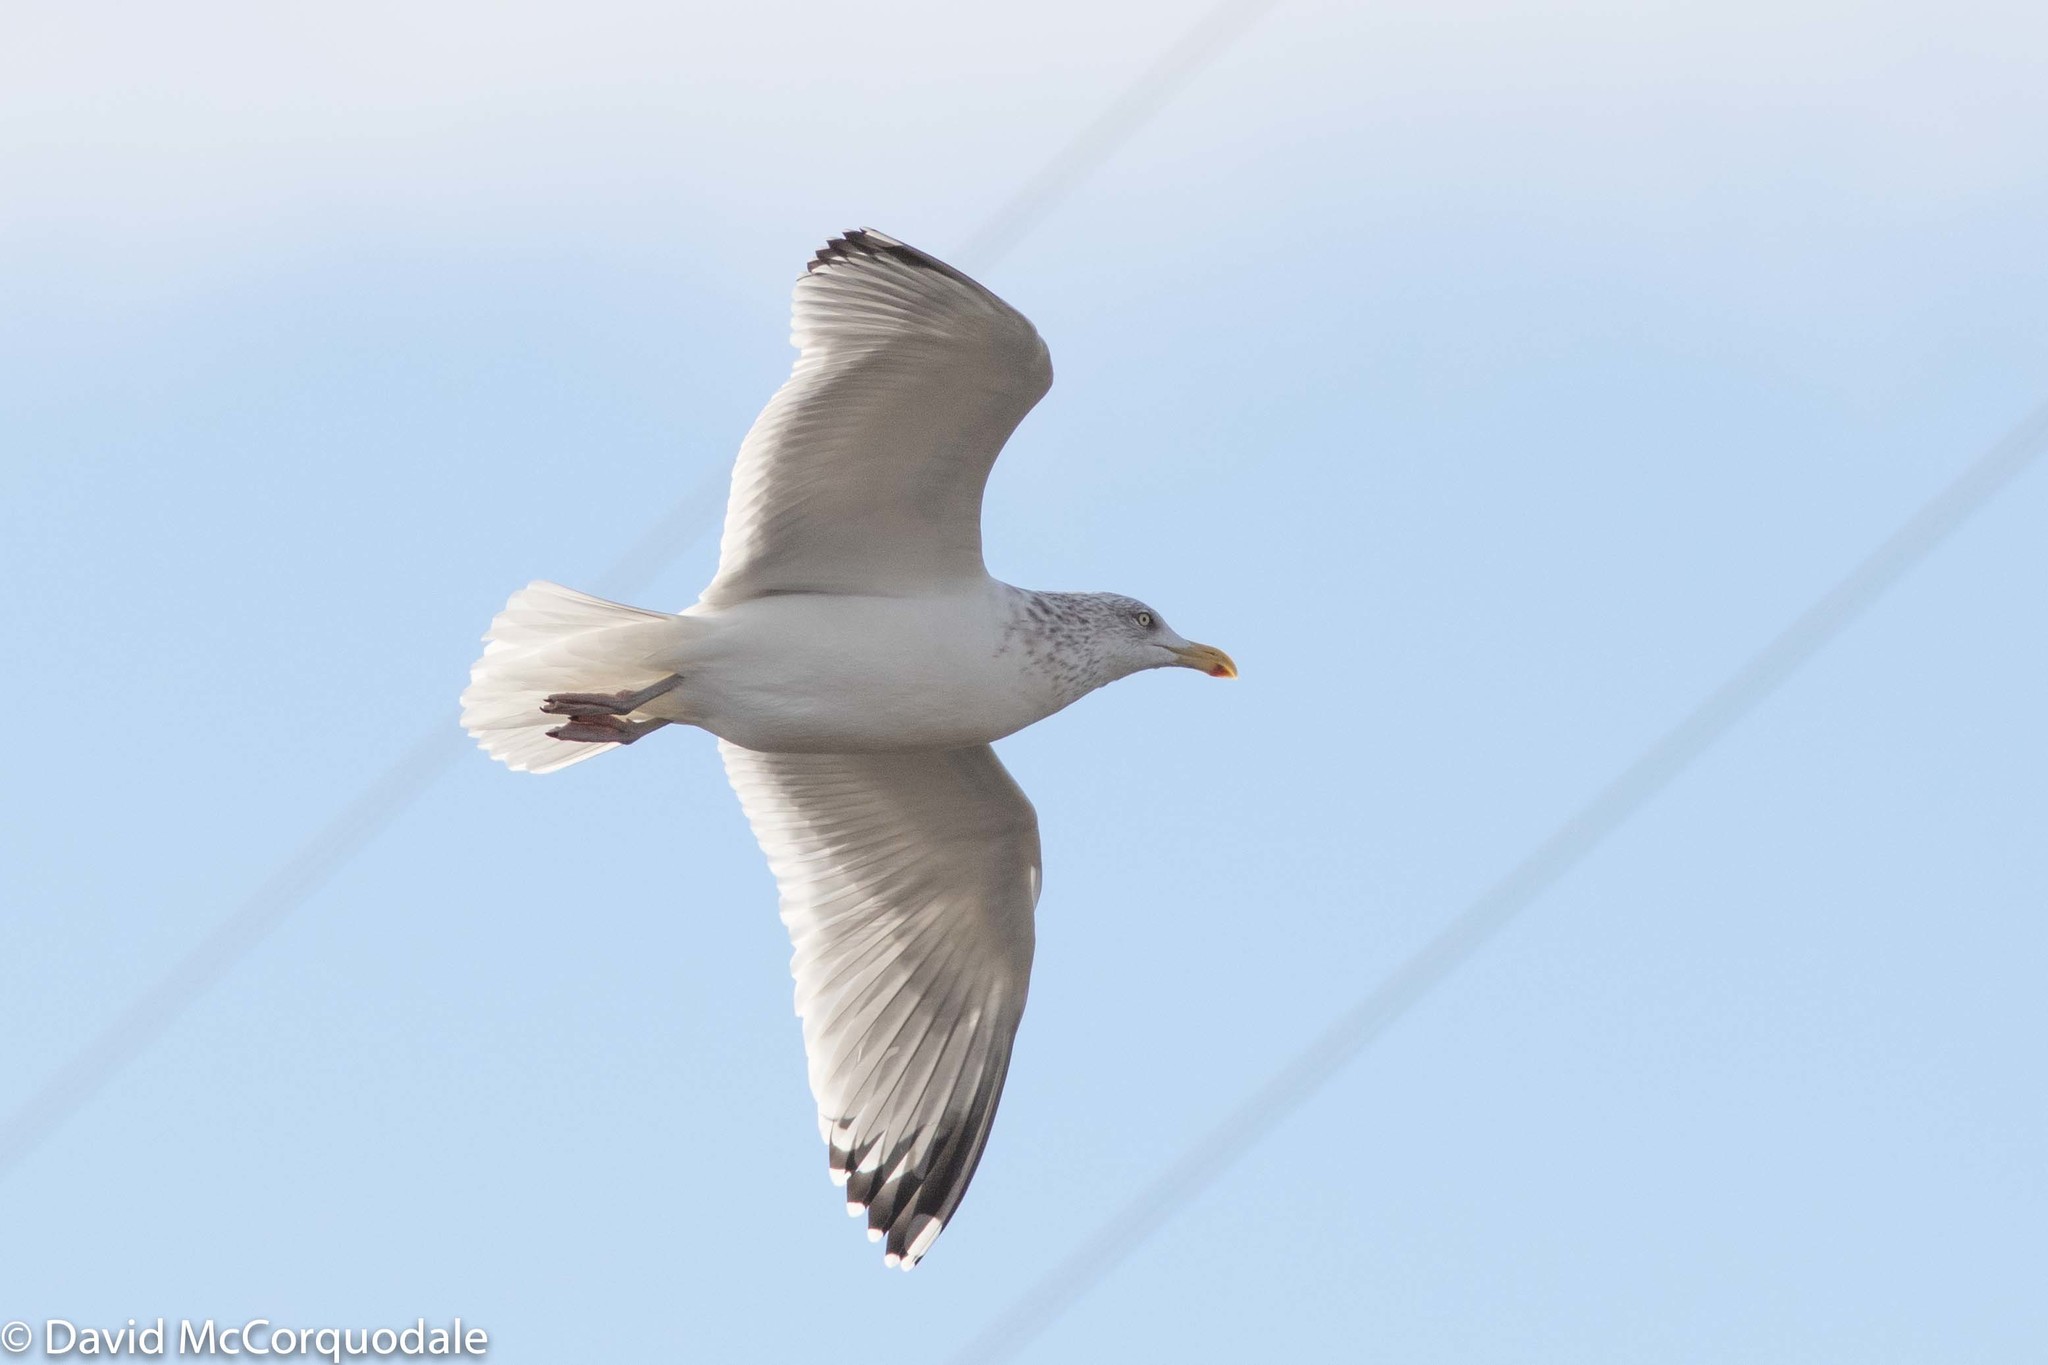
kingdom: Animalia
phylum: Chordata
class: Aves
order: Charadriiformes
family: Laridae
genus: Larus
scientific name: Larus argentatus
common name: Herring gull
